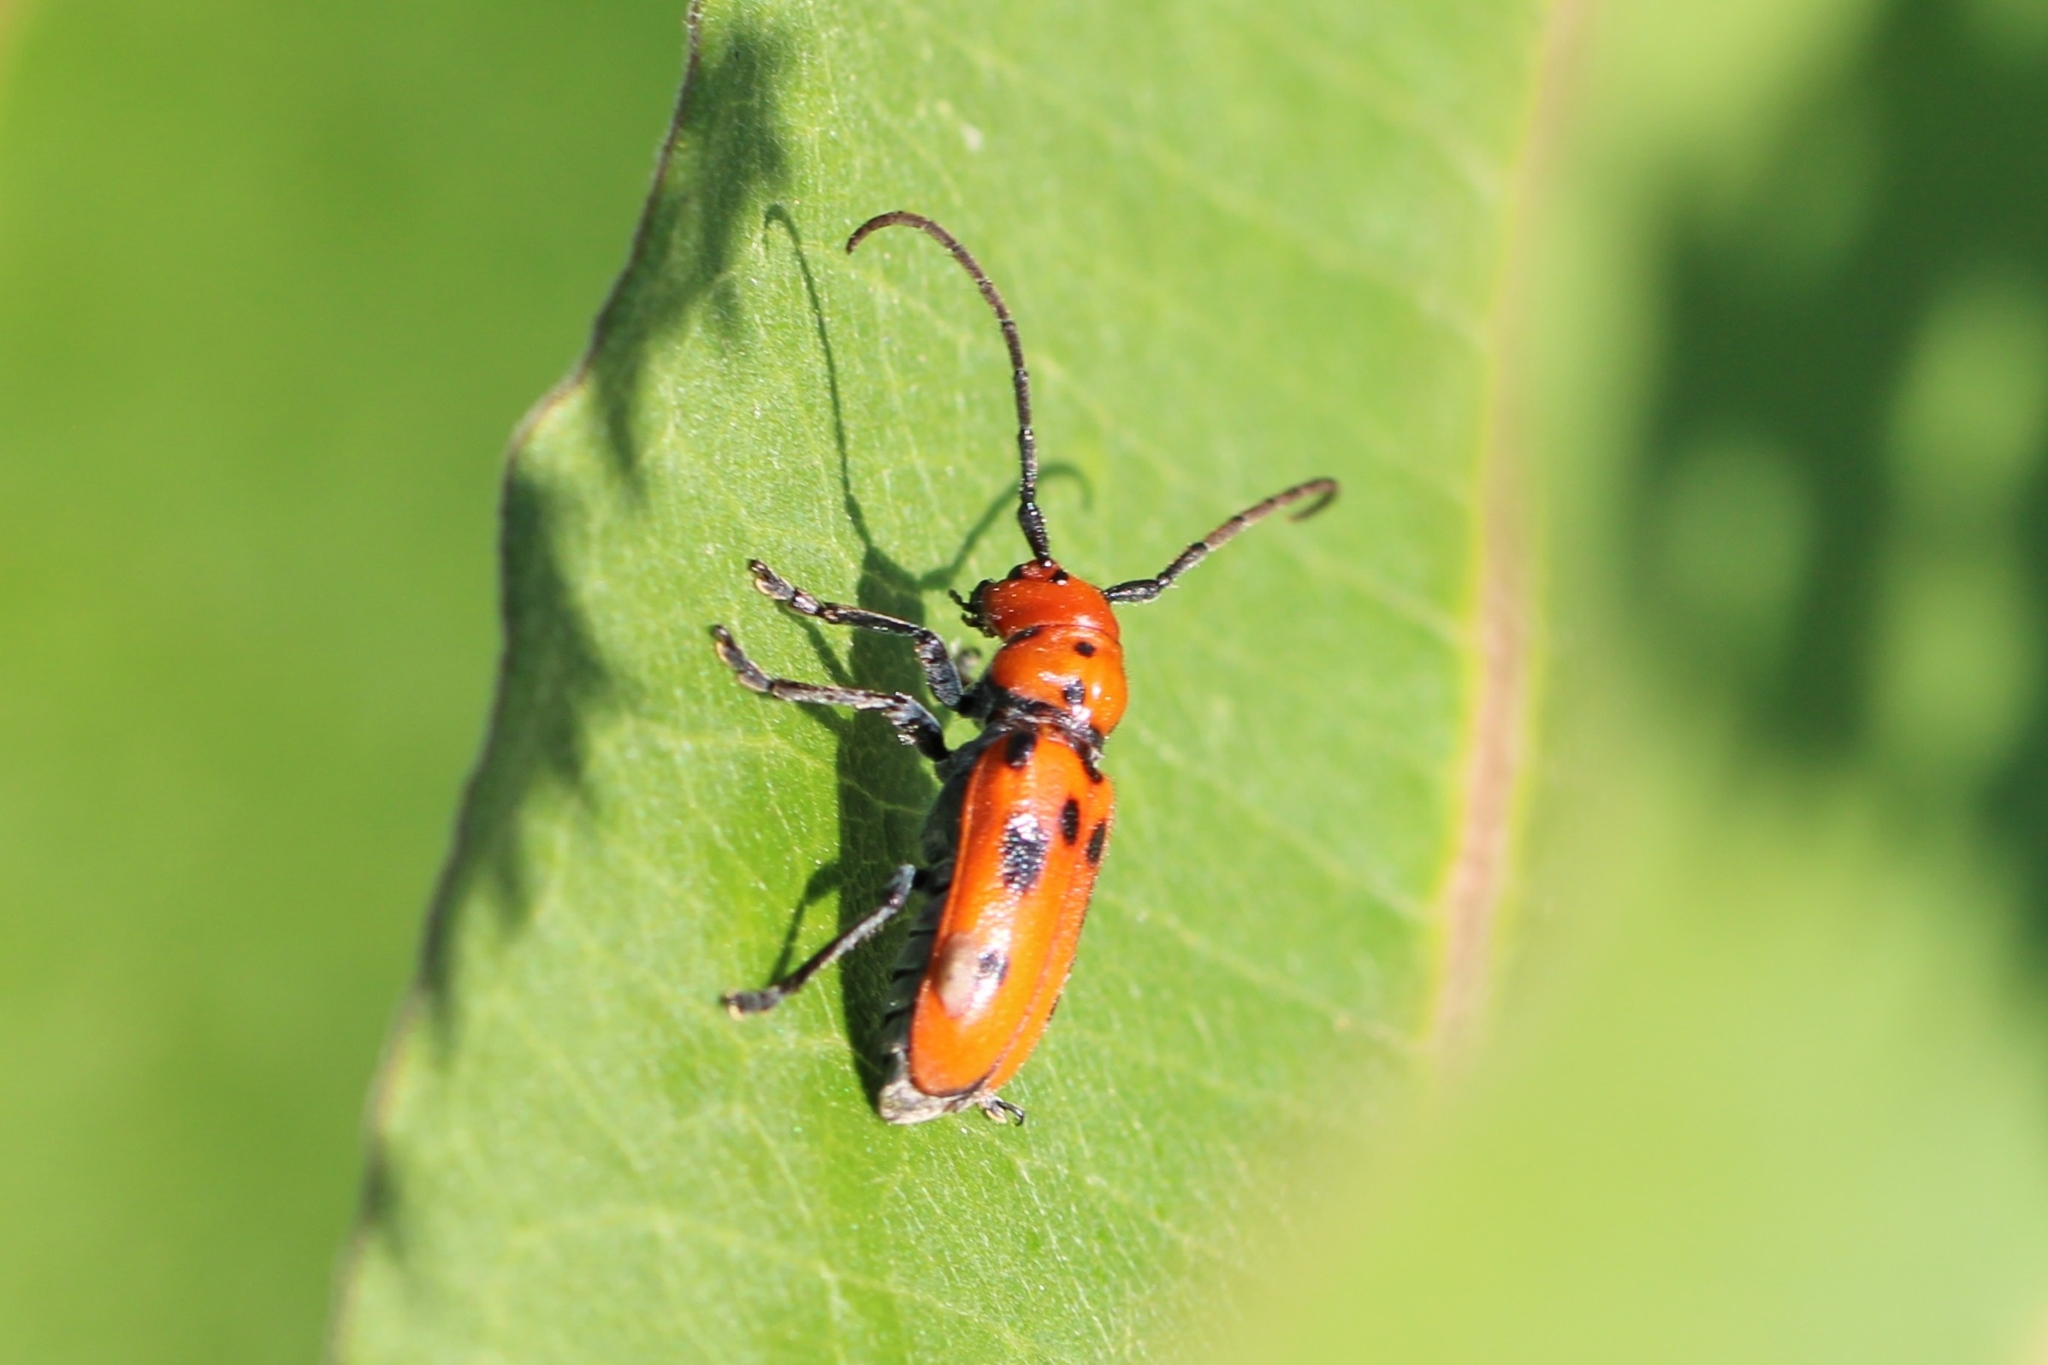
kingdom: Animalia
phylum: Arthropoda
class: Insecta
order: Coleoptera
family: Cerambycidae
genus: Tetraopes
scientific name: Tetraopes tetrophthalmus
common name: Red milkweed beetle
